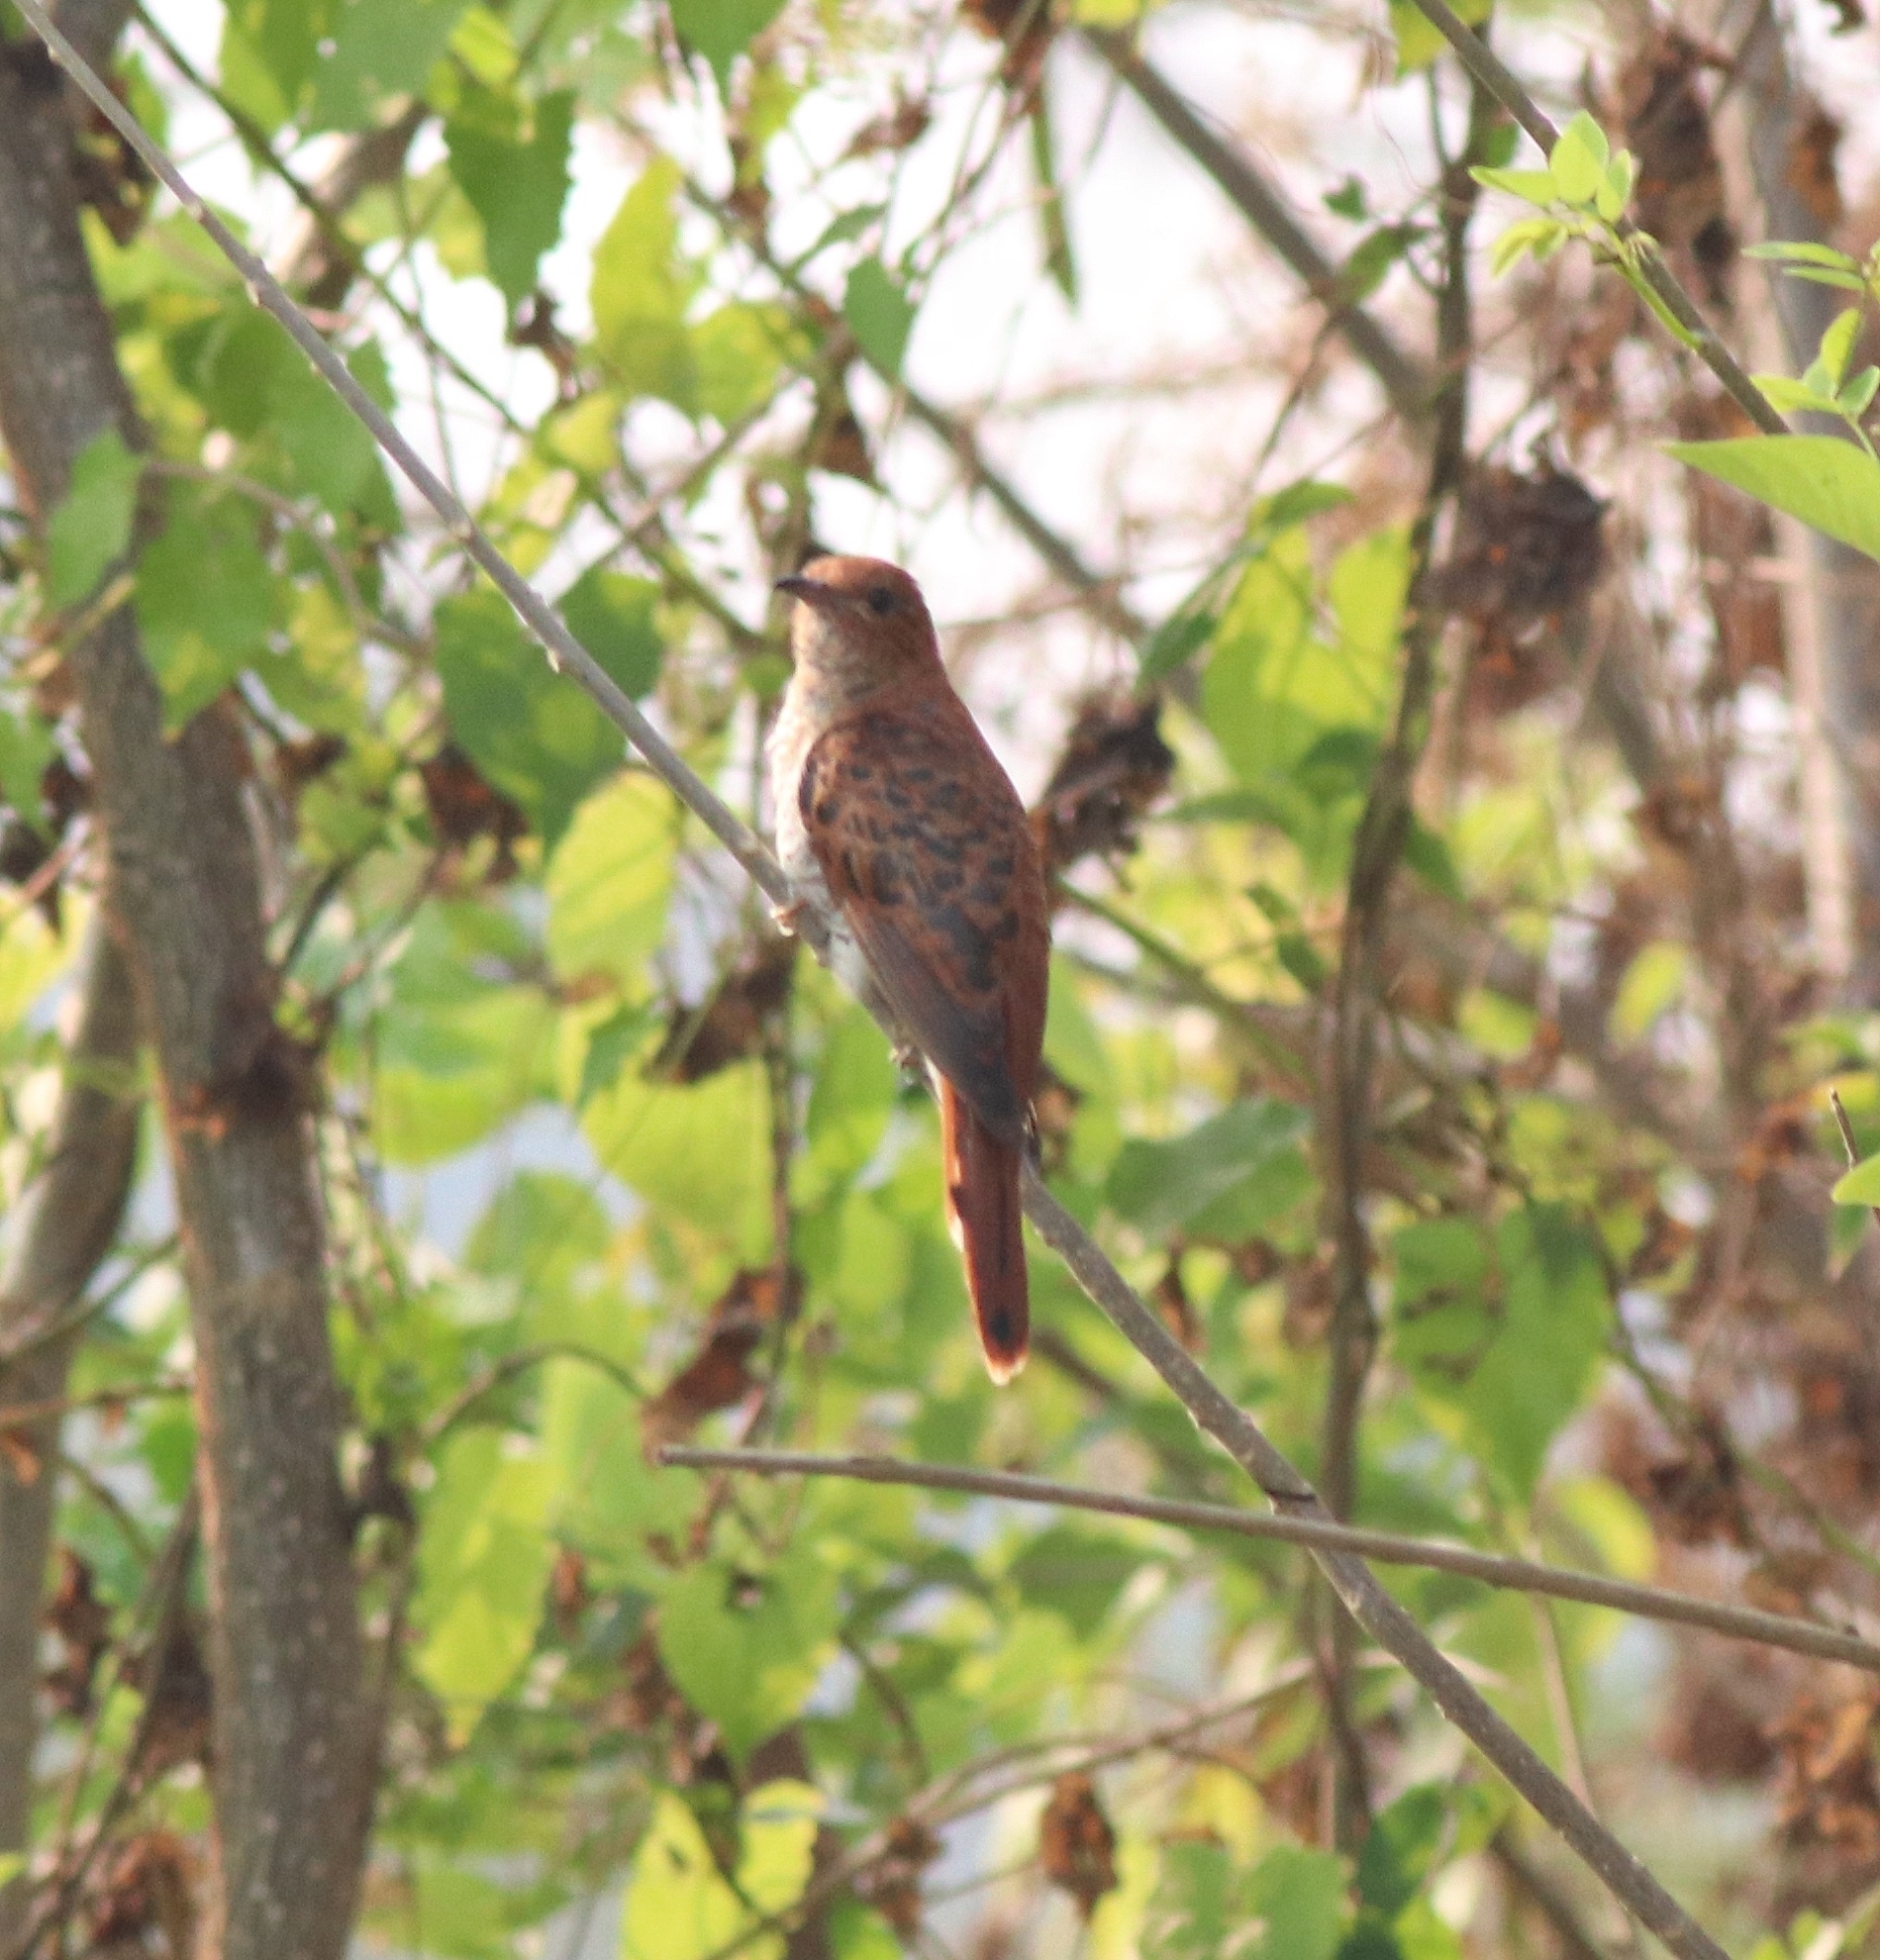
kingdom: Animalia
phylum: Chordata
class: Aves
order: Cuculiformes
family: Cuculidae
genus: Cacomantis
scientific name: Cacomantis passerinus
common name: Grey-bellied cuckoo
